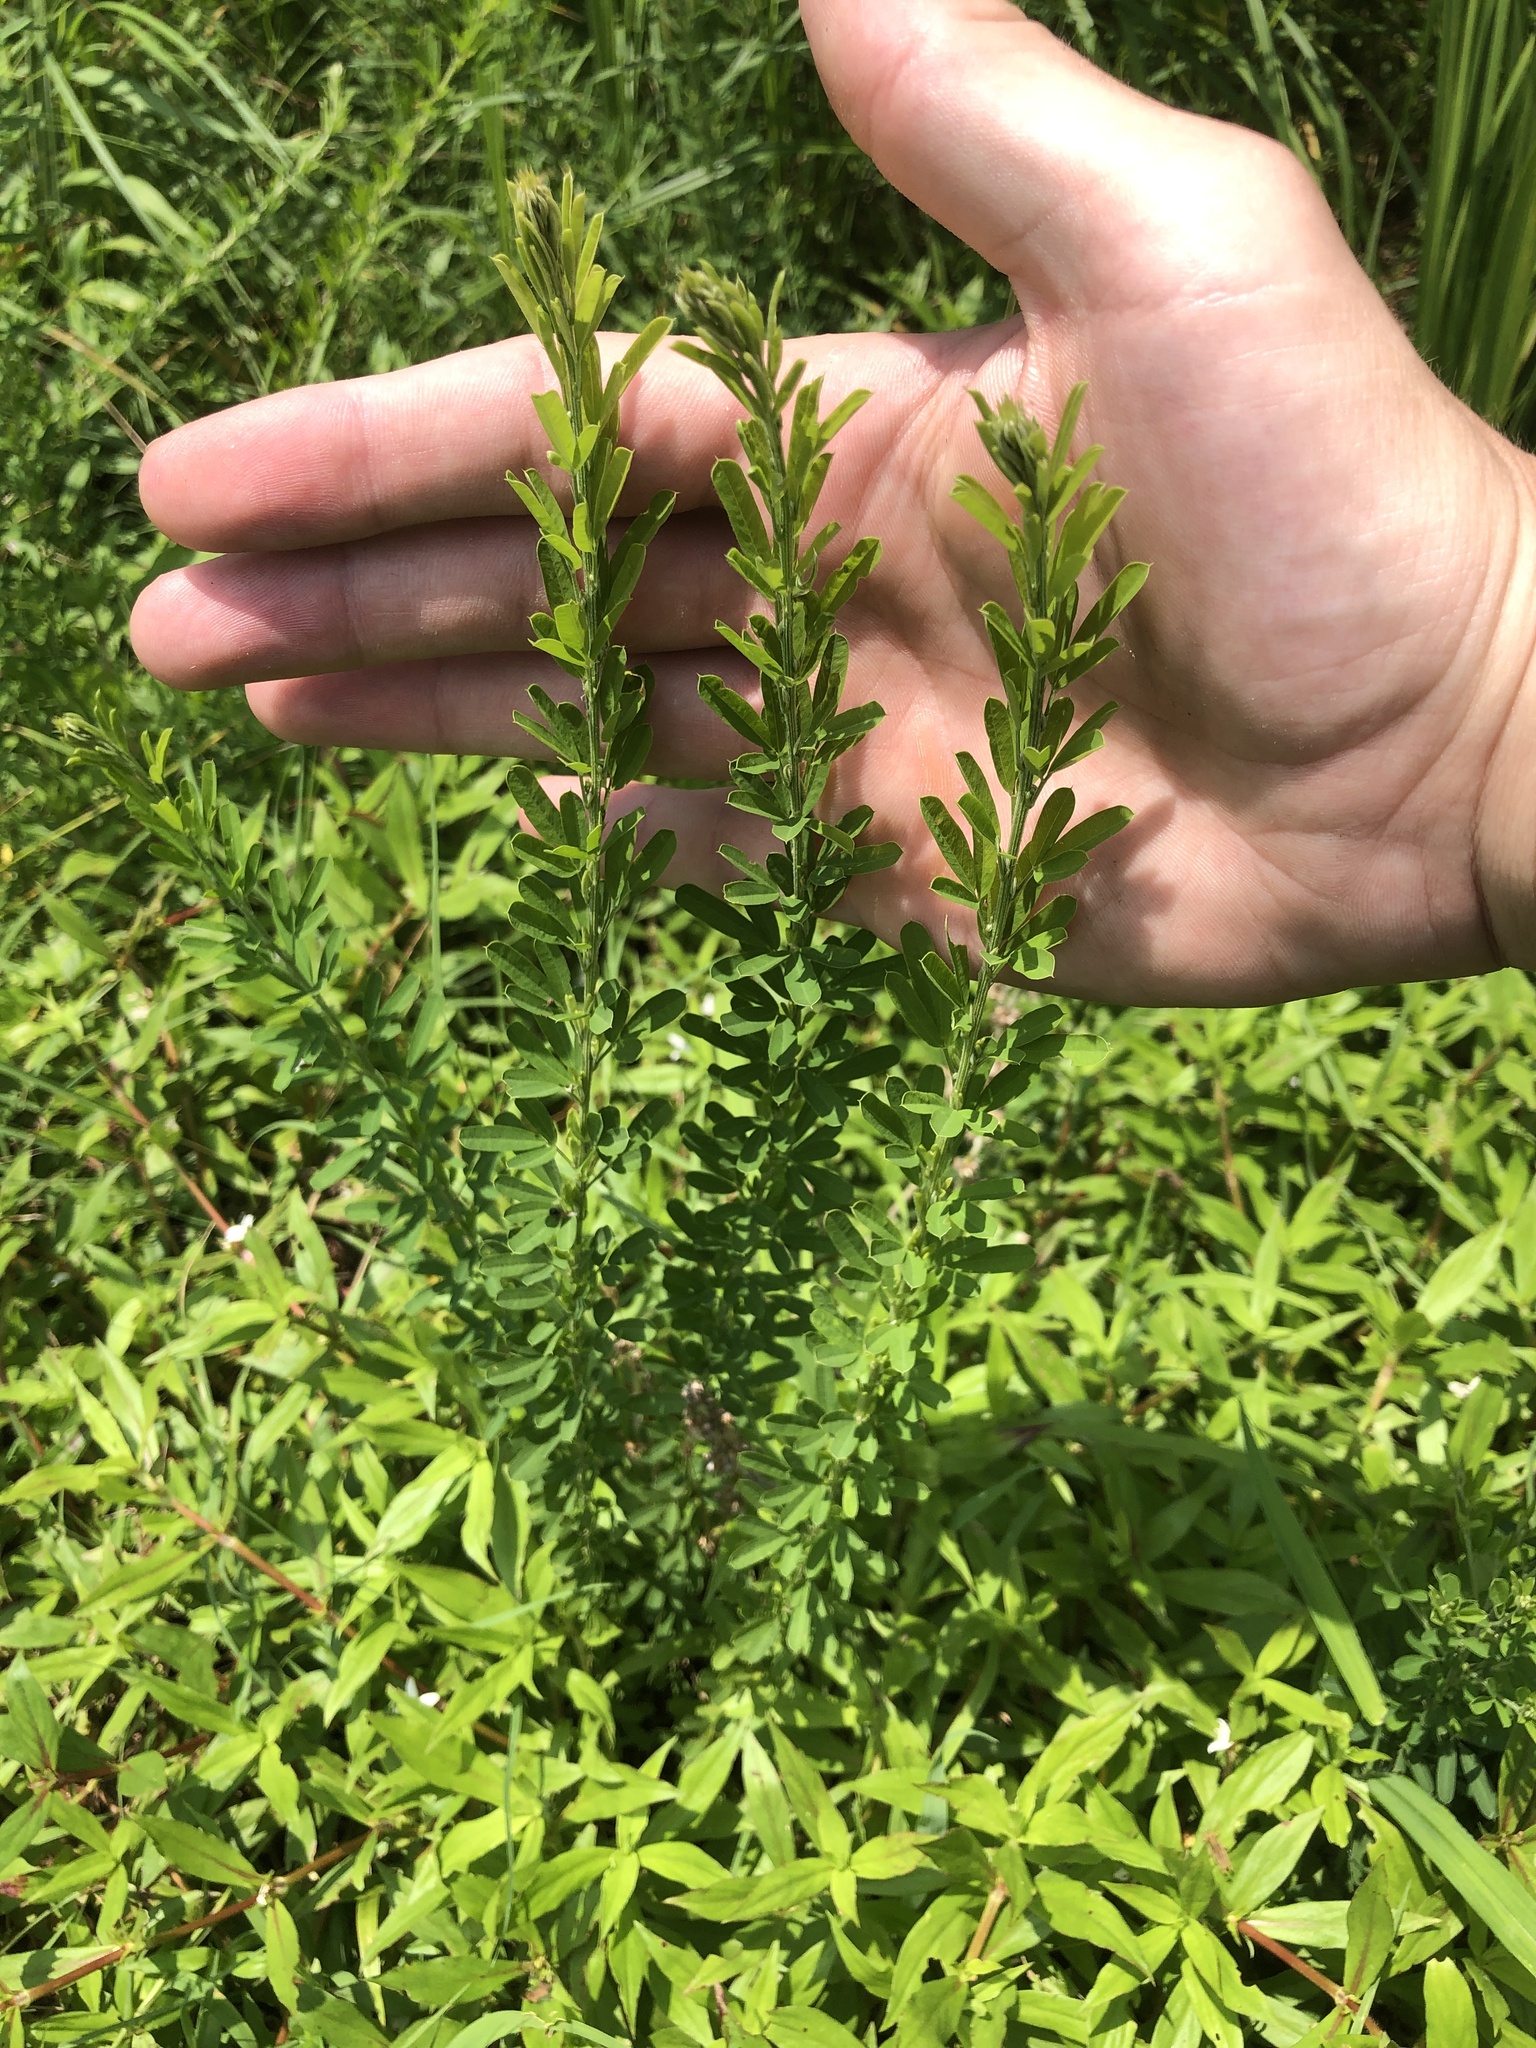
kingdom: Plantae
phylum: Tracheophyta
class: Magnoliopsida
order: Fabales
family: Fabaceae
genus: Lespedeza
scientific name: Lespedeza cuneata
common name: Chinese bush-clover
